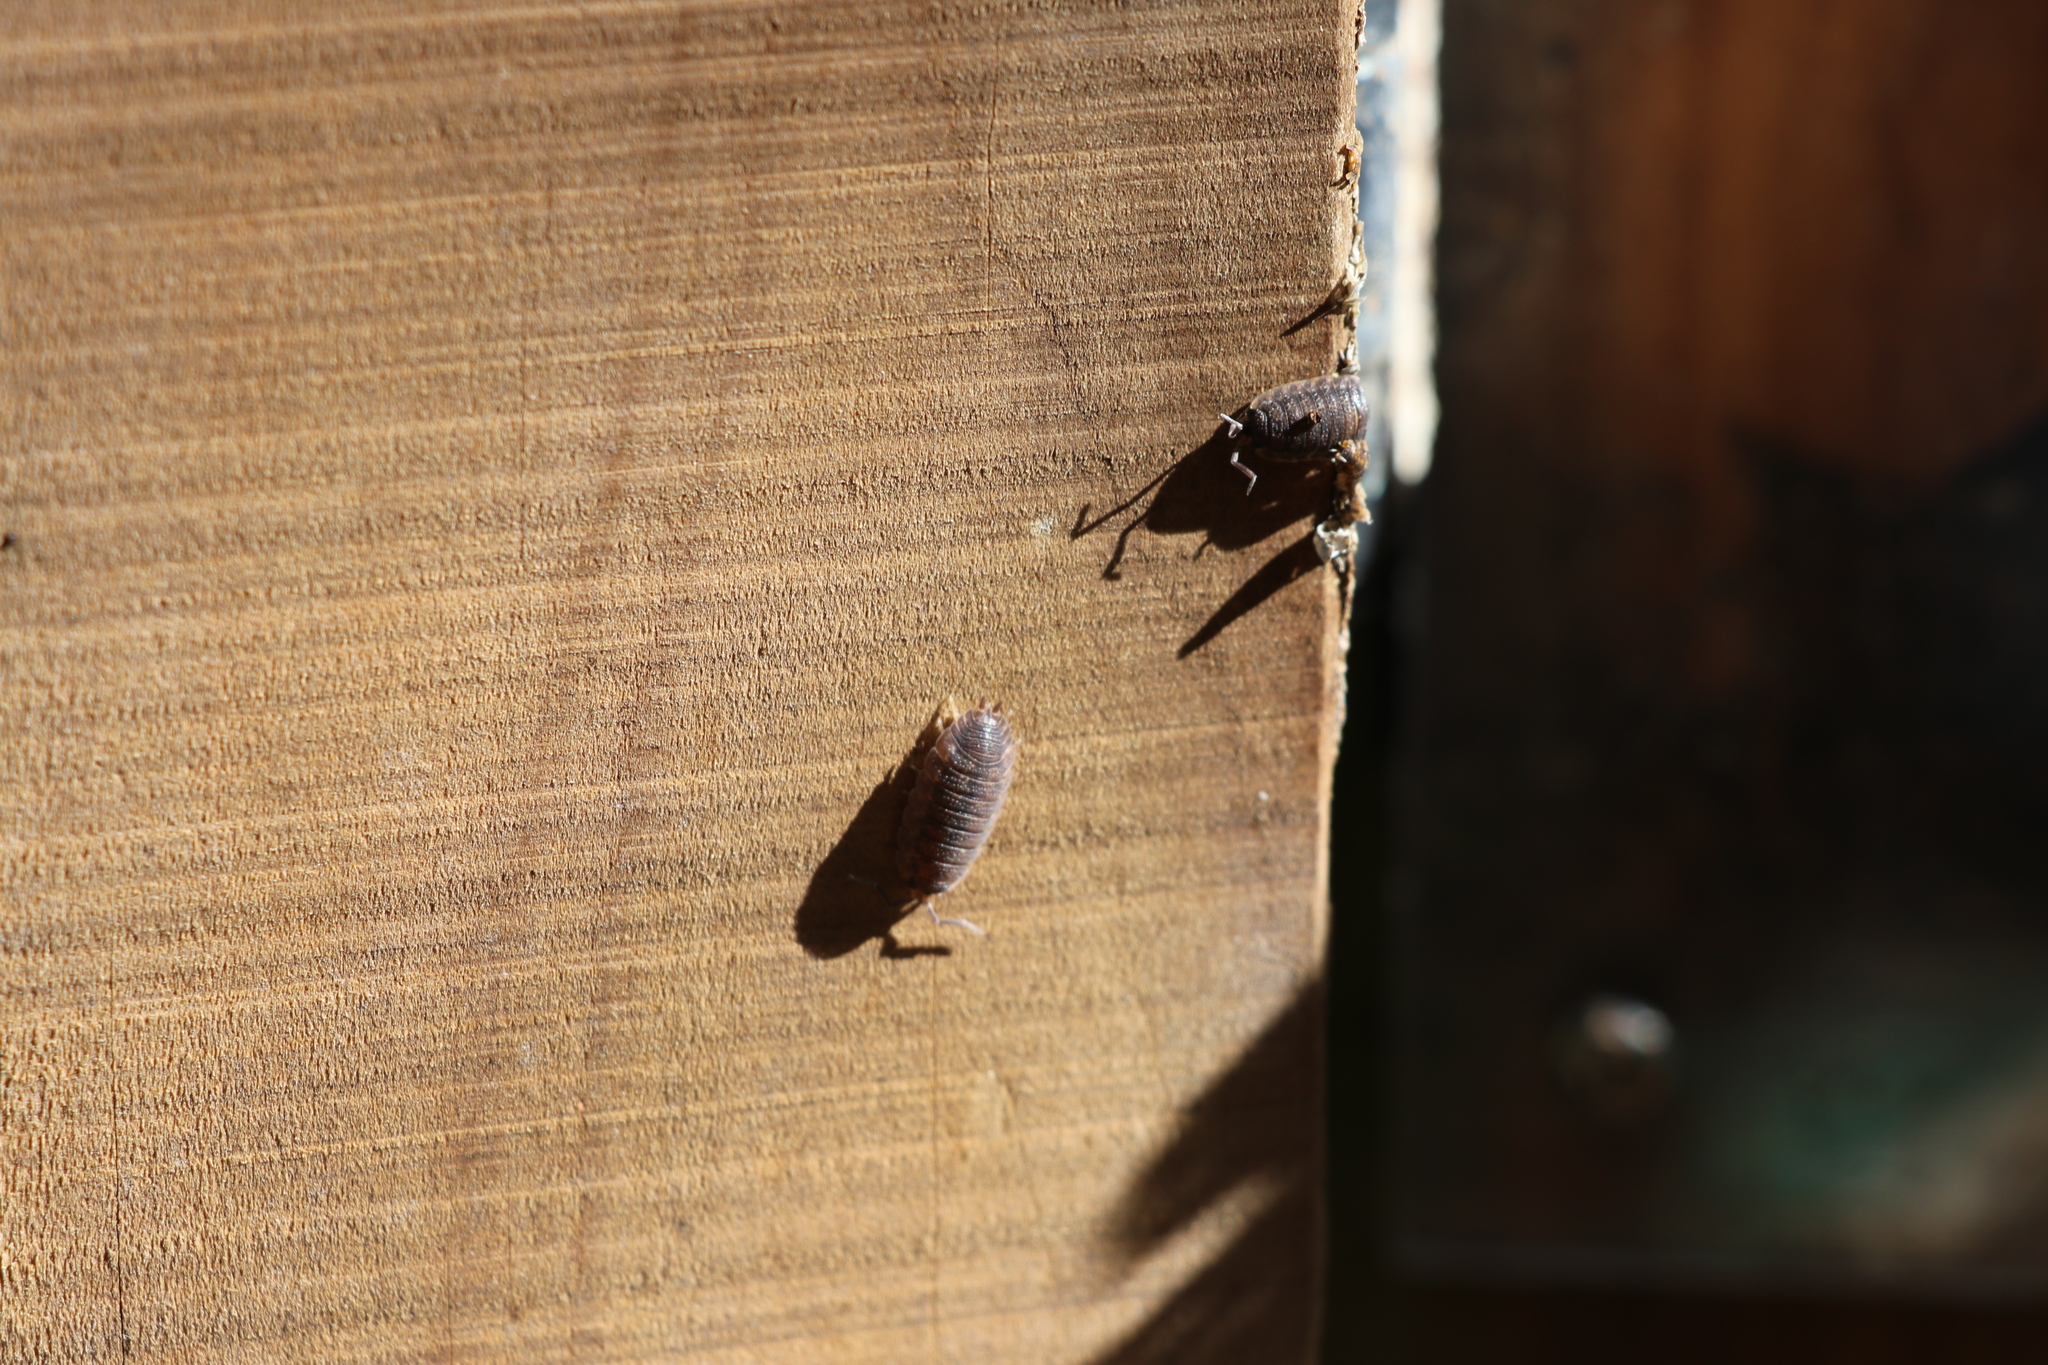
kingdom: Animalia
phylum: Arthropoda
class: Malacostraca
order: Isopoda
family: Porcellionidae
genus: Porcellio
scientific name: Porcellio scaber
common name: Common rough woodlouse
